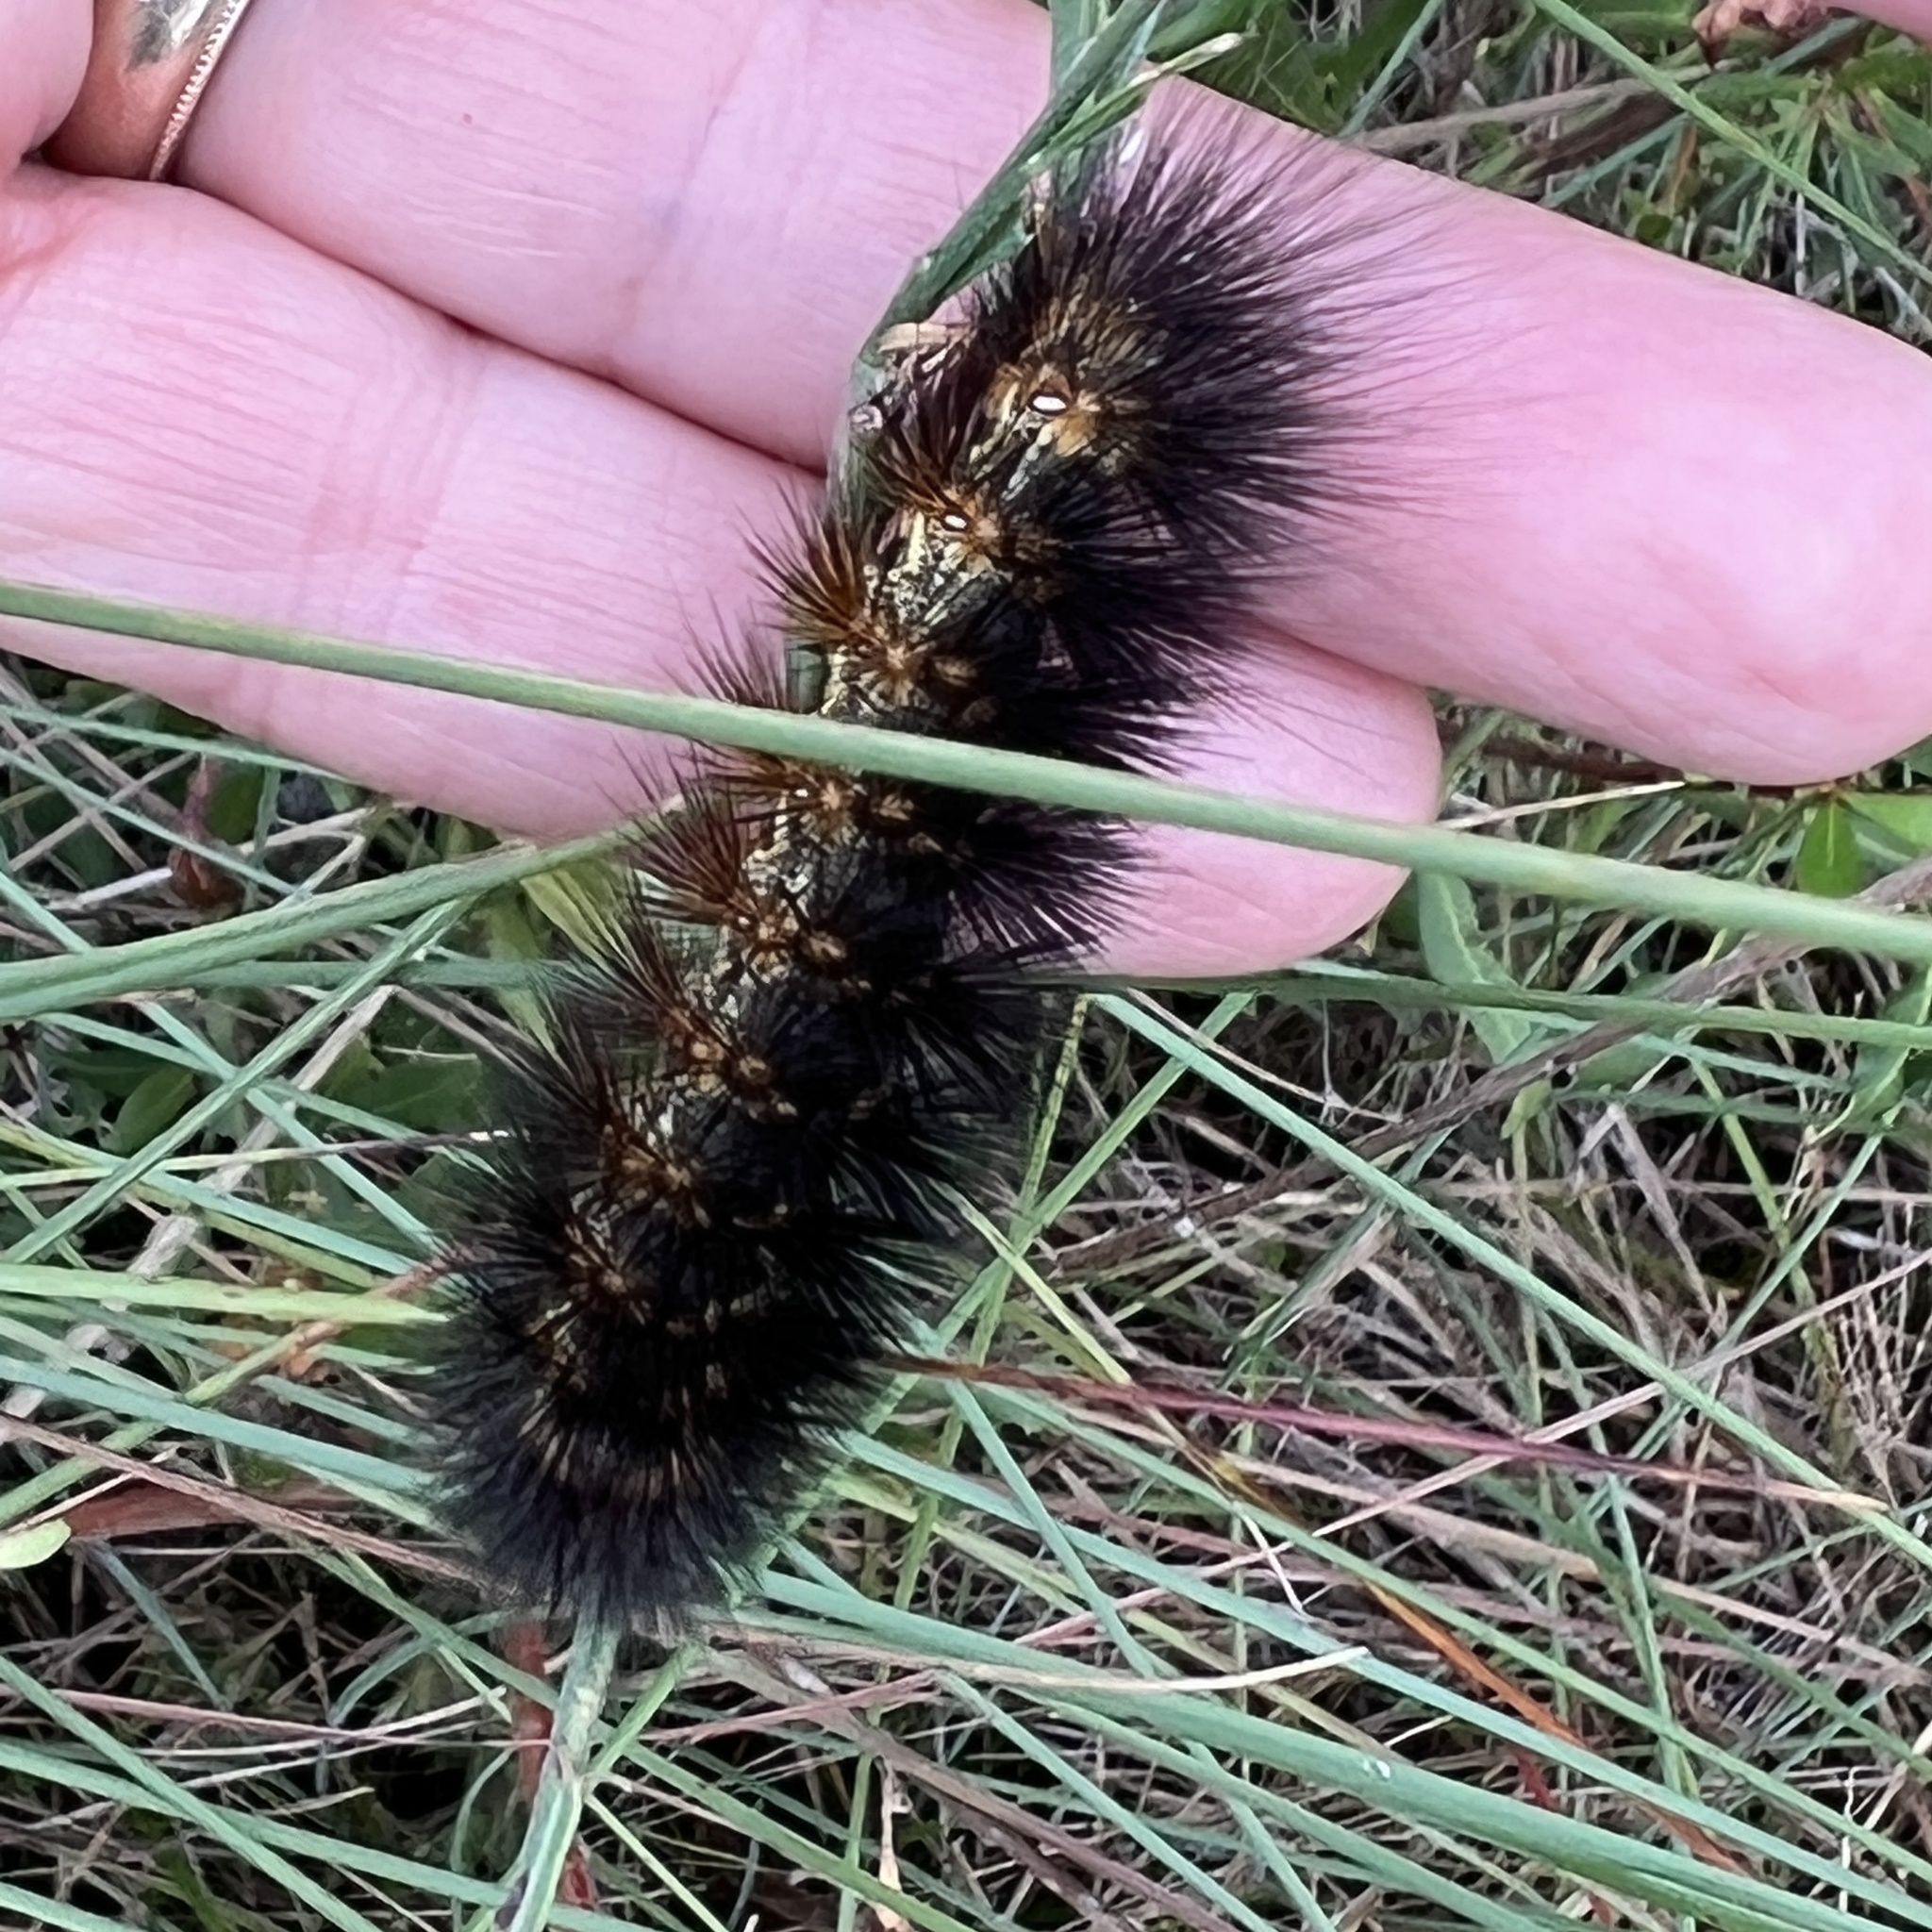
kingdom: Animalia
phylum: Arthropoda
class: Insecta
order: Lepidoptera
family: Erebidae
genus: Estigmene
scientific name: Estigmene acrea
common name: Salt marsh moth
